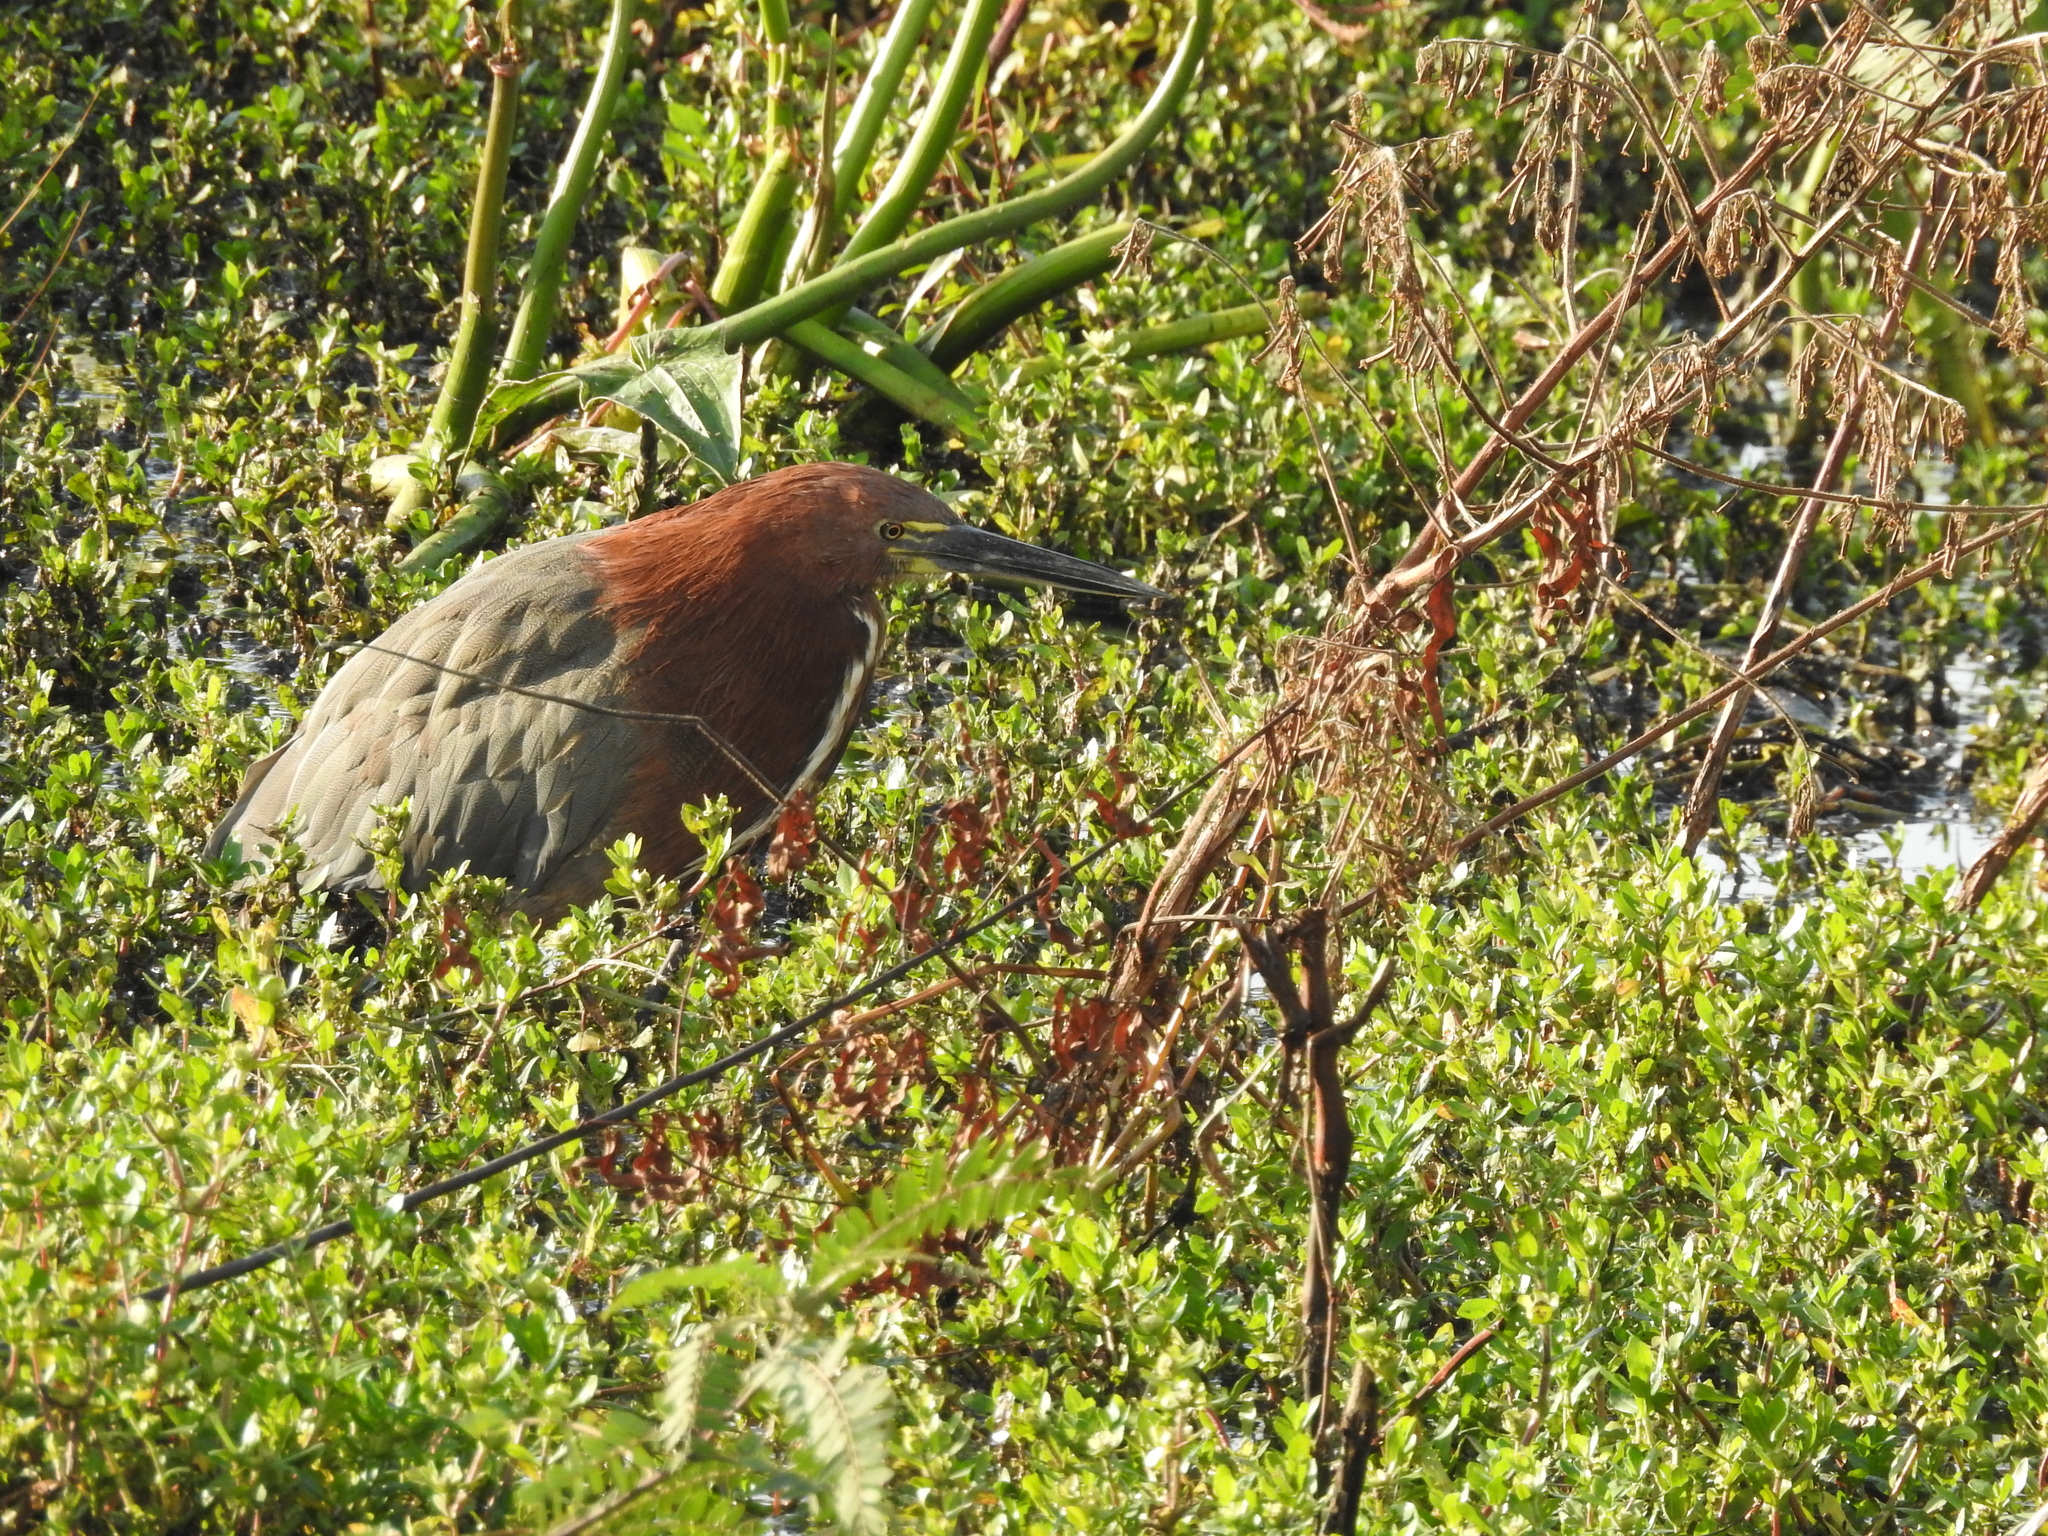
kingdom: Animalia
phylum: Chordata
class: Aves
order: Pelecaniformes
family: Ardeidae
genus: Tigrisoma
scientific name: Tigrisoma lineatum
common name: Rufescent tiger-heron
